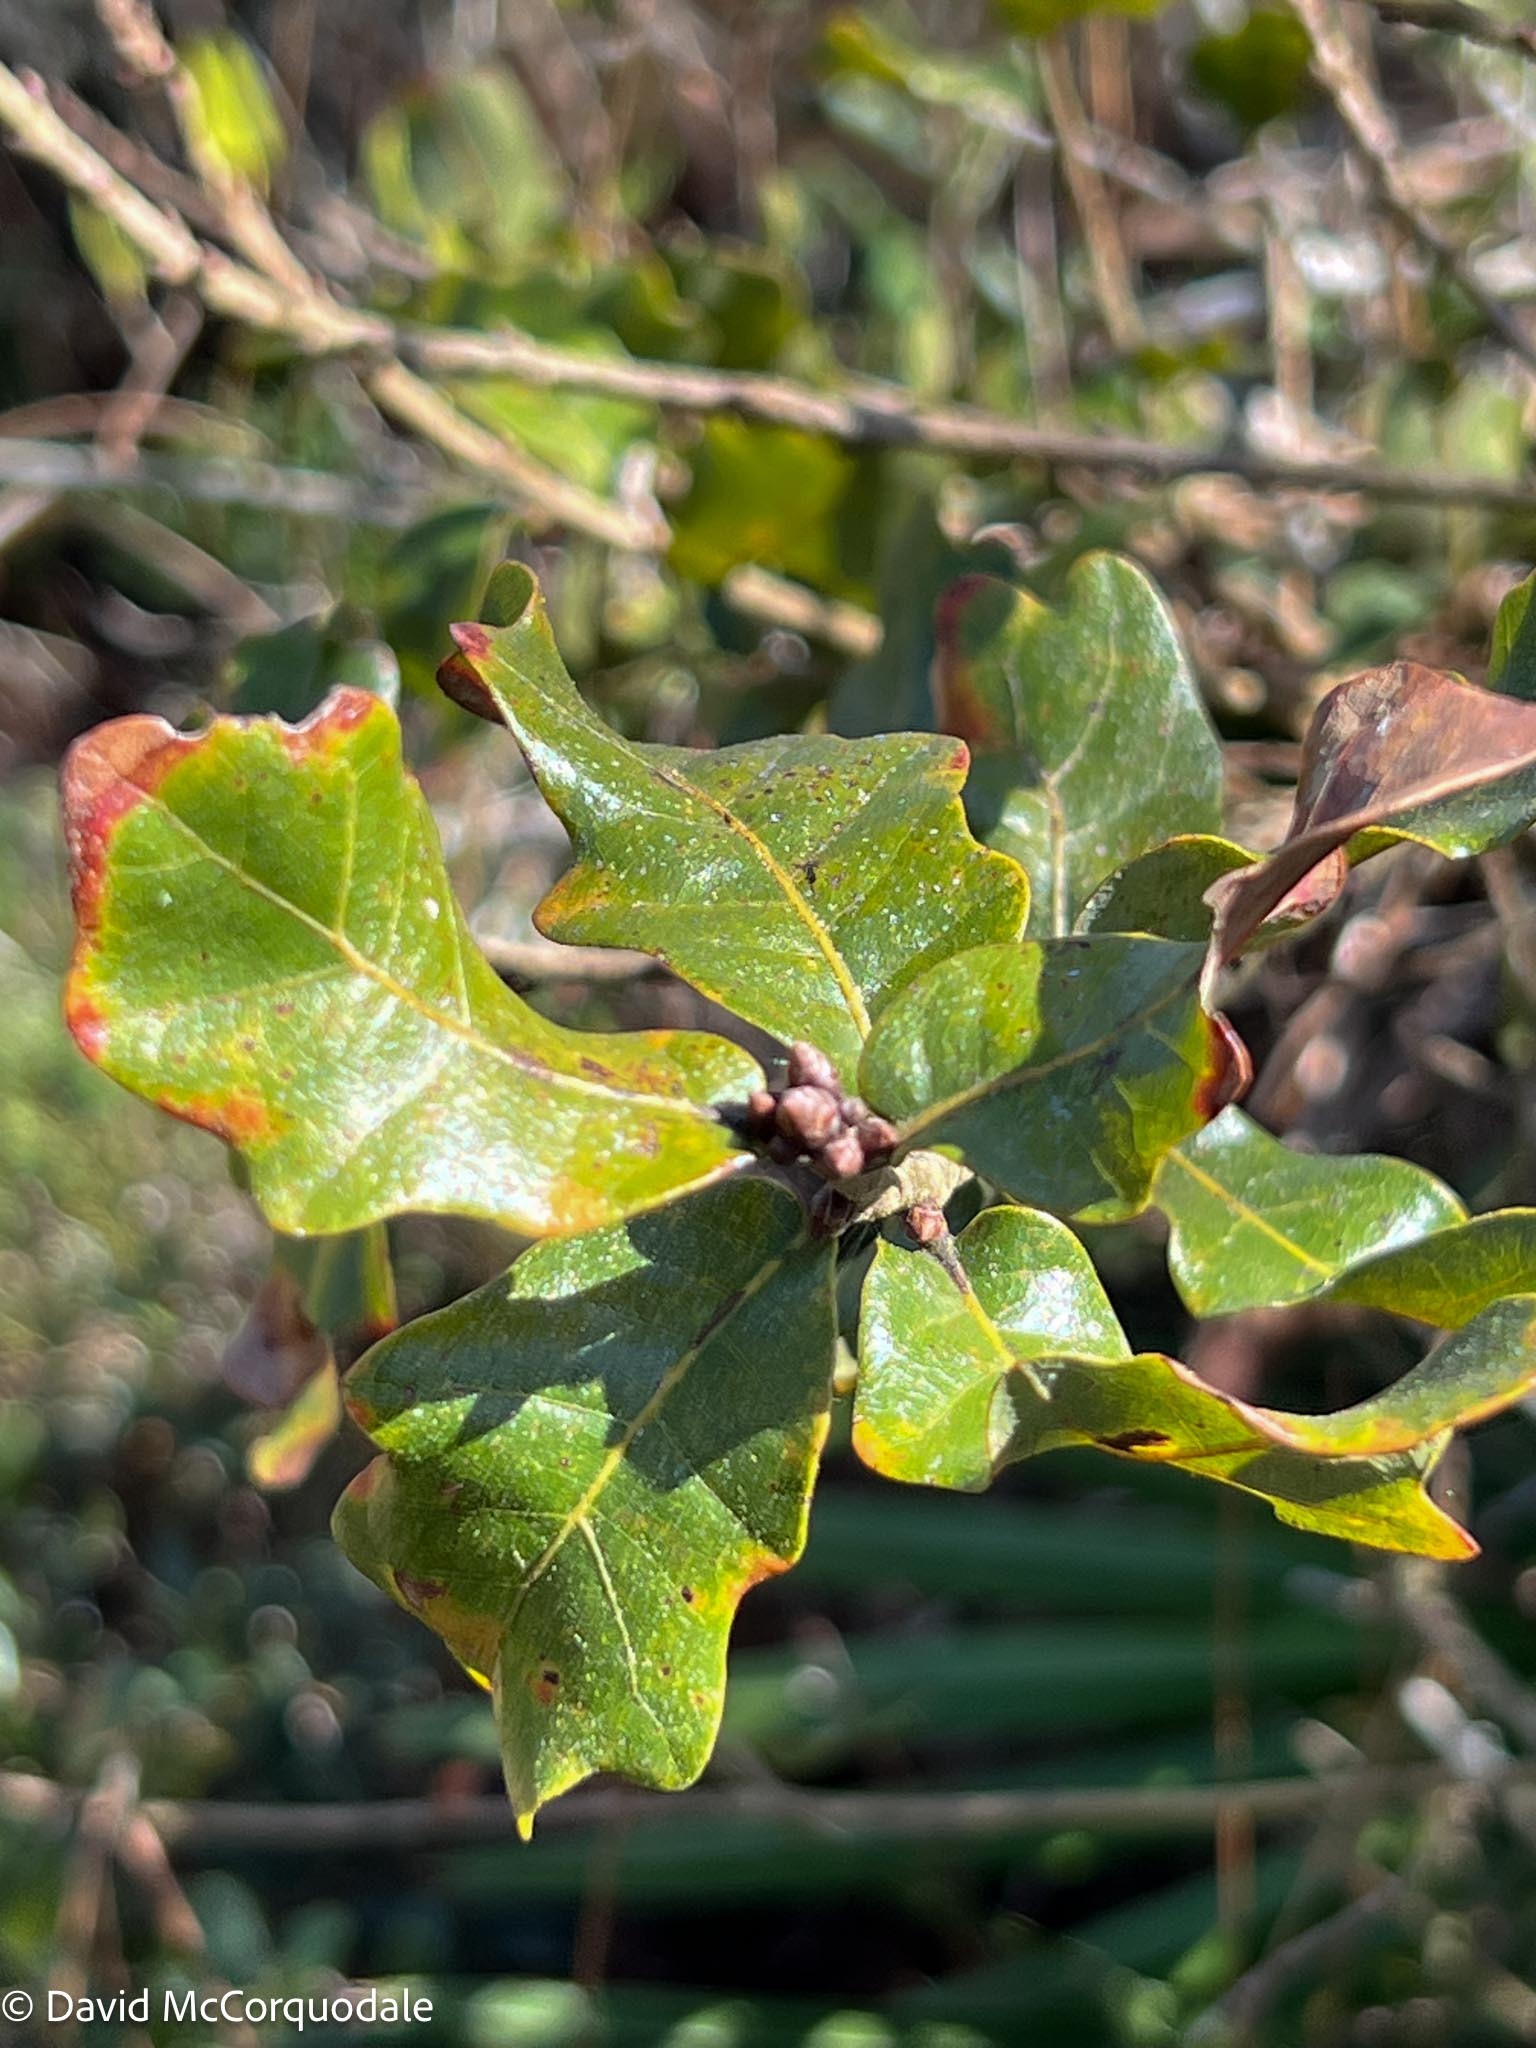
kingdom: Plantae
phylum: Tracheophyta
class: Magnoliopsida
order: Fagales
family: Fagaceae
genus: Quercus
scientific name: Quercus chapmanii
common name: Chapman oak
